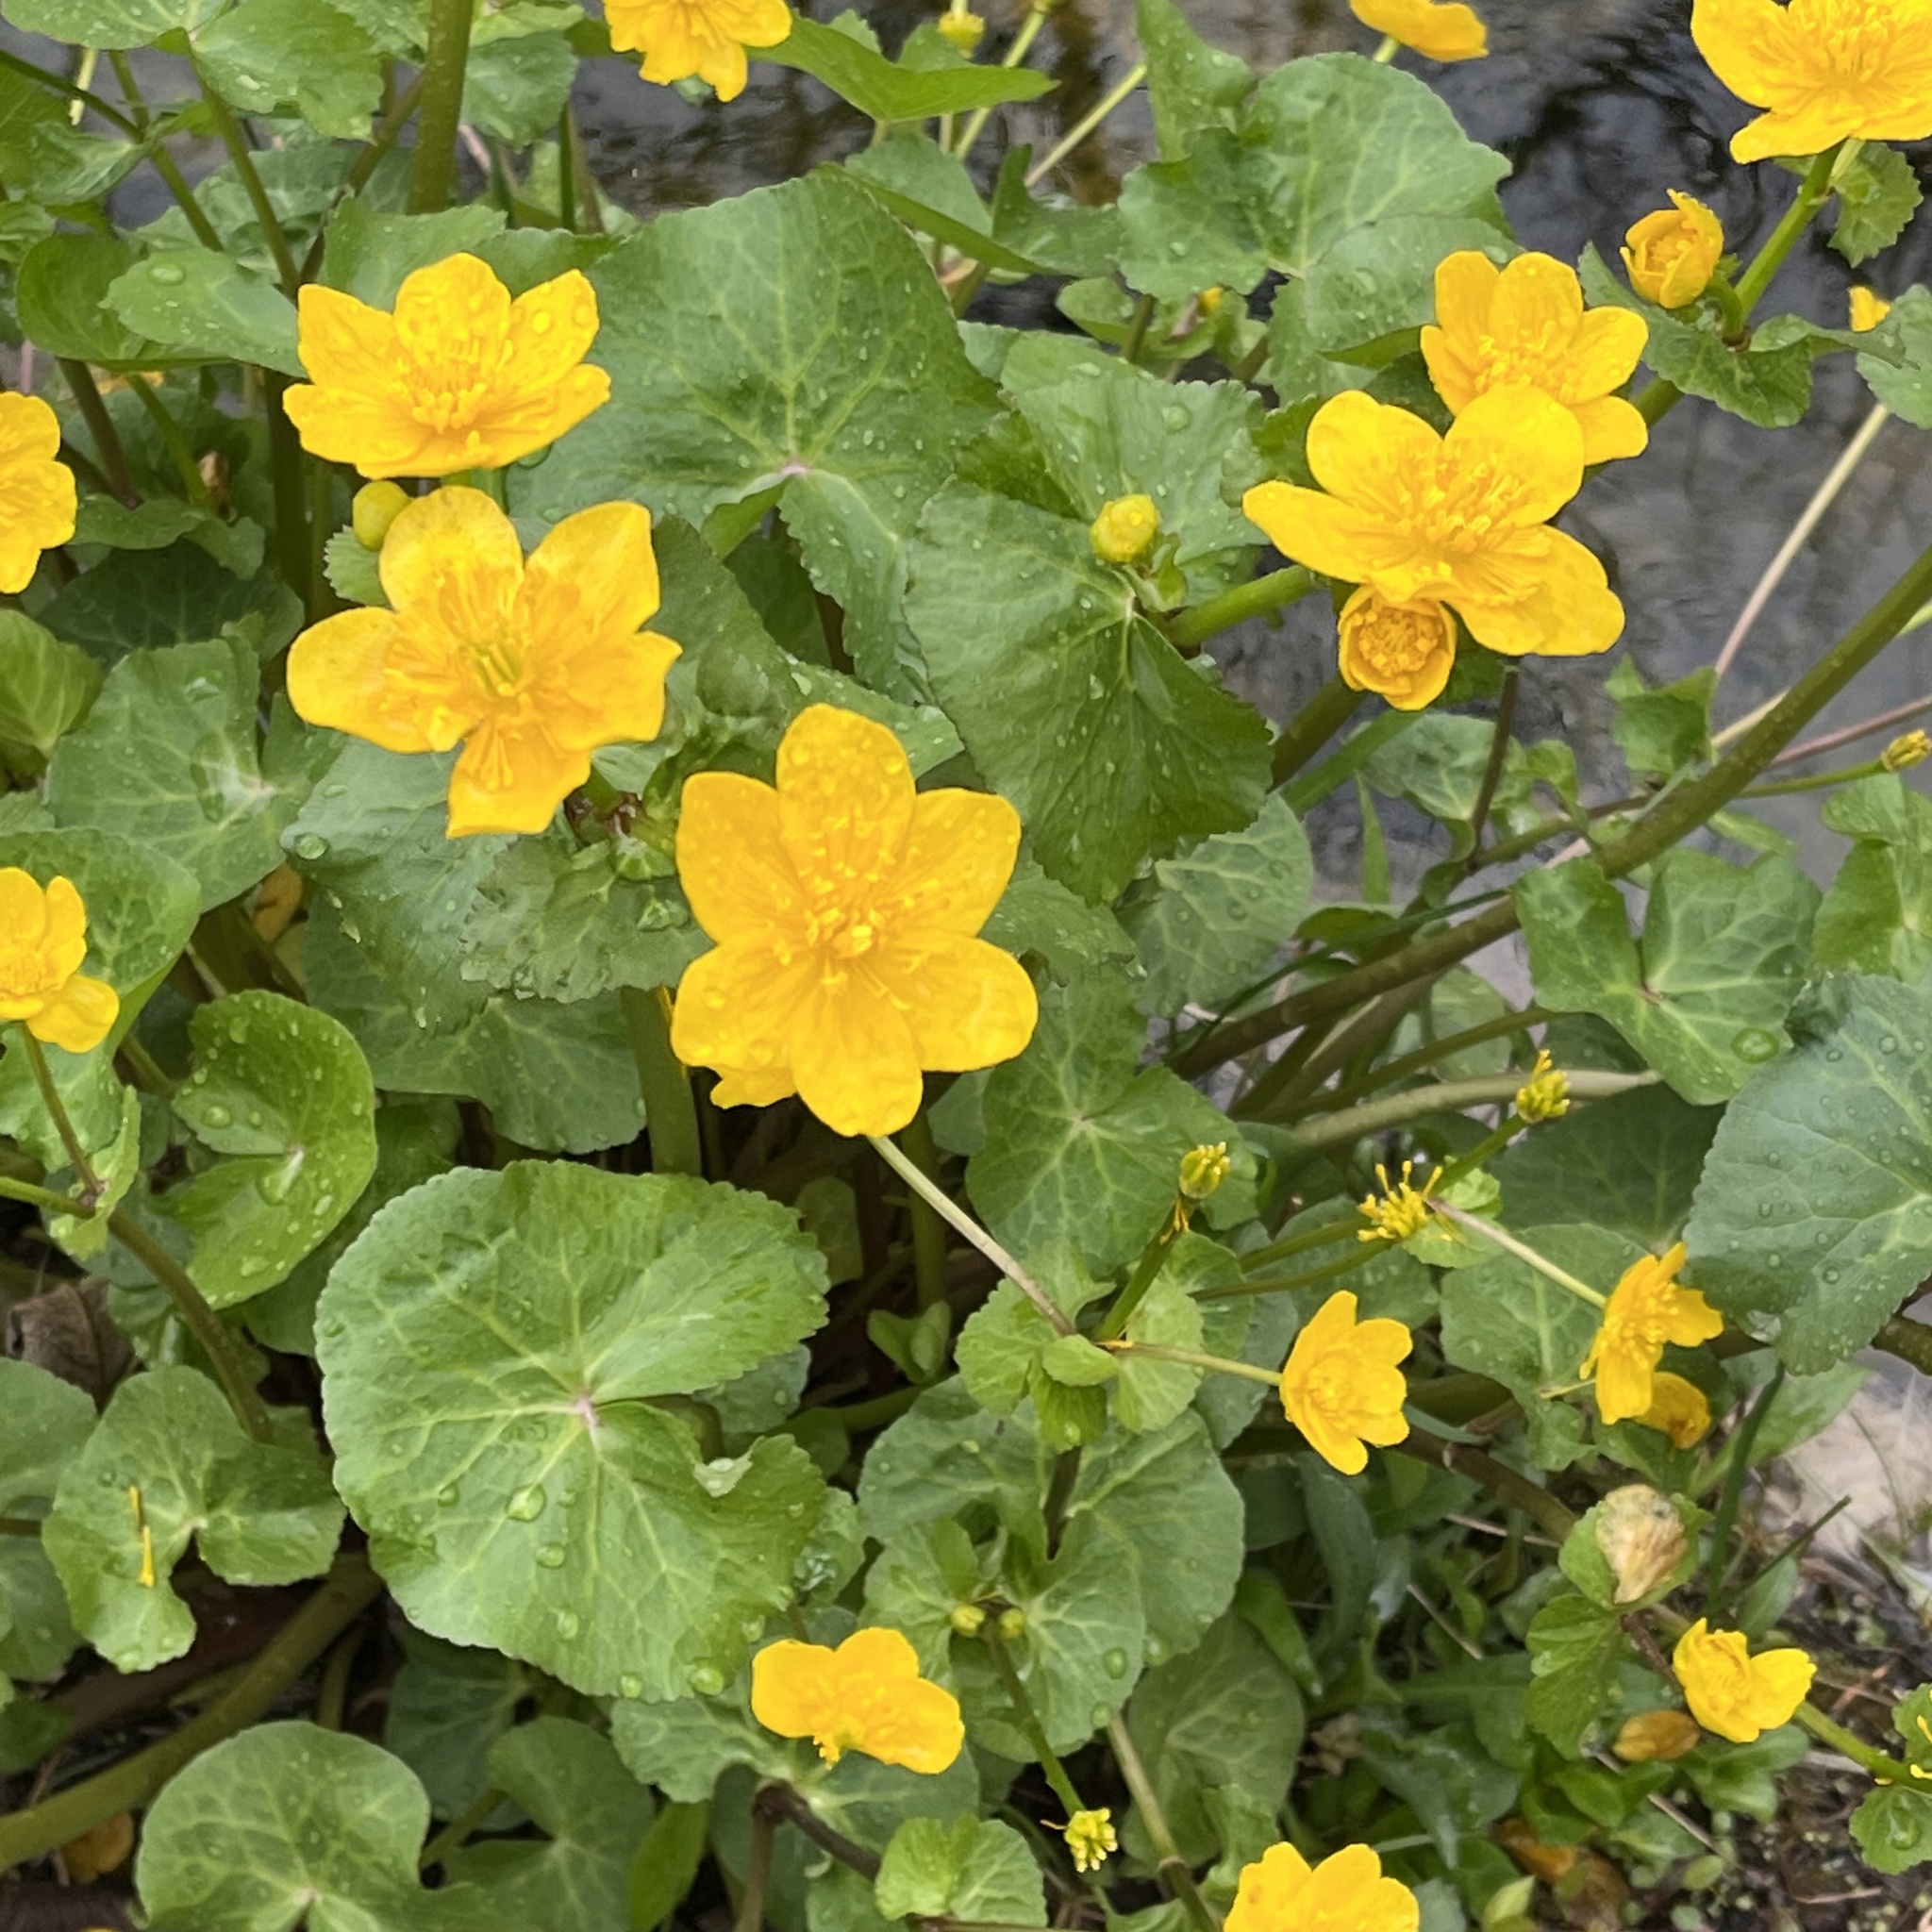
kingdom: Plantae
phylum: Tracheophyta
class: Magnoliopsida
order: Ranunculales
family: Ranunculaceae
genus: Caltha
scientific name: Caltha palustris
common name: Marsh marigold
